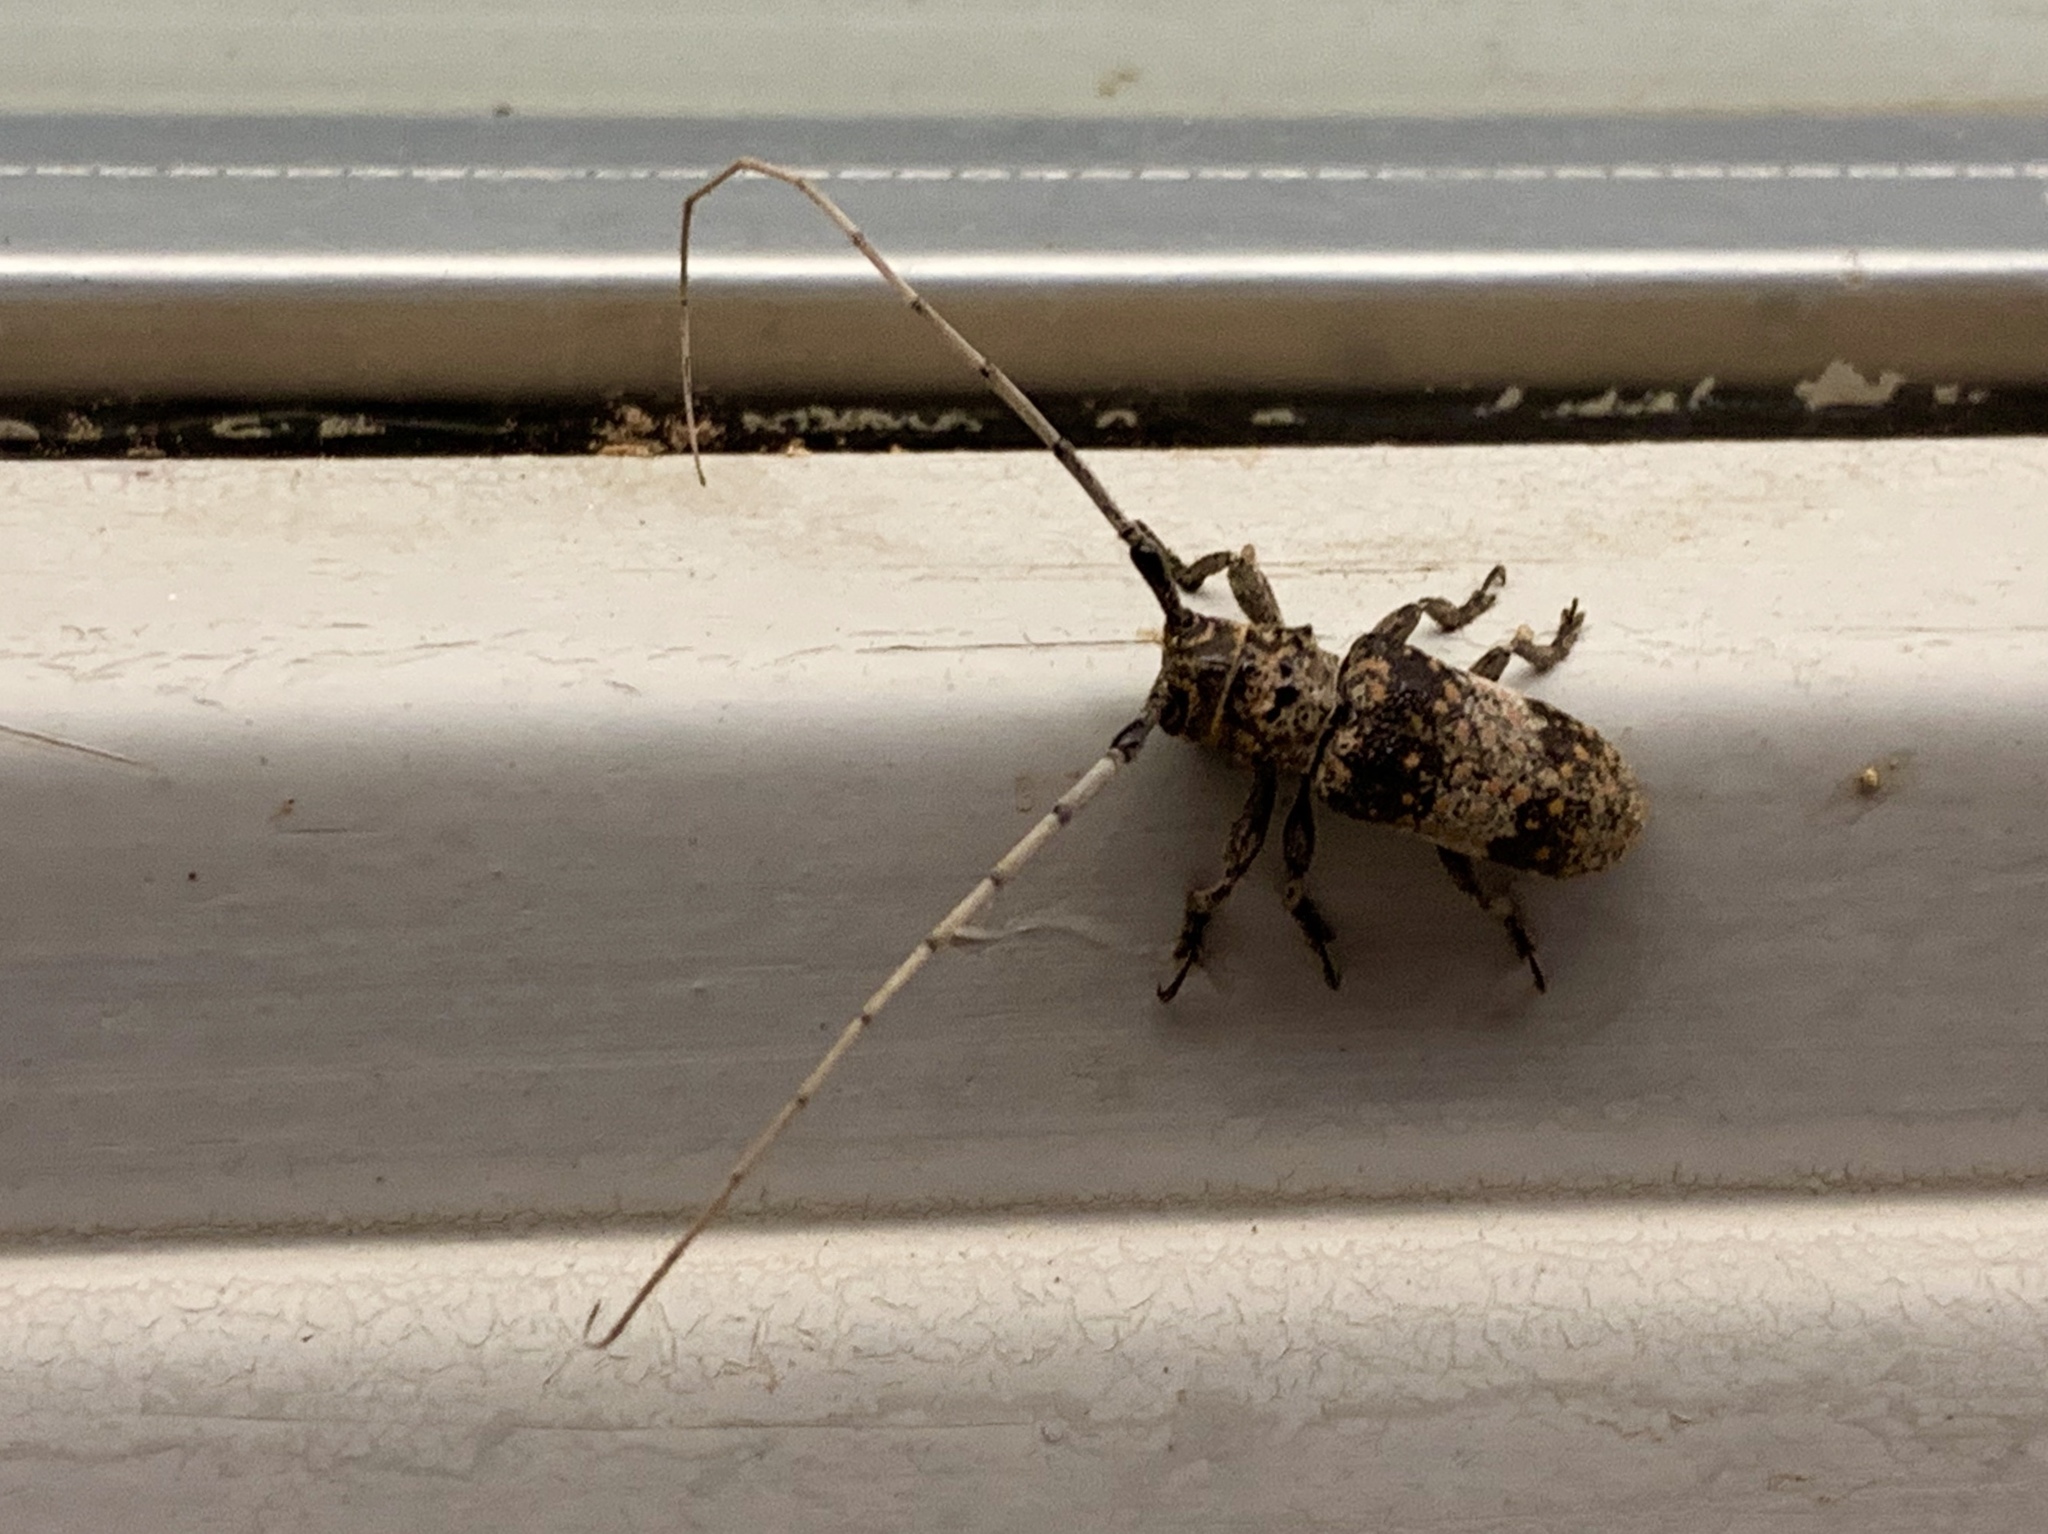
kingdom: Animalia
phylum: Arthropoda
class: Insecta
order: Coleoptera
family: Cerambycidae
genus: Oncideres
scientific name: Oncideres rhodosticta
